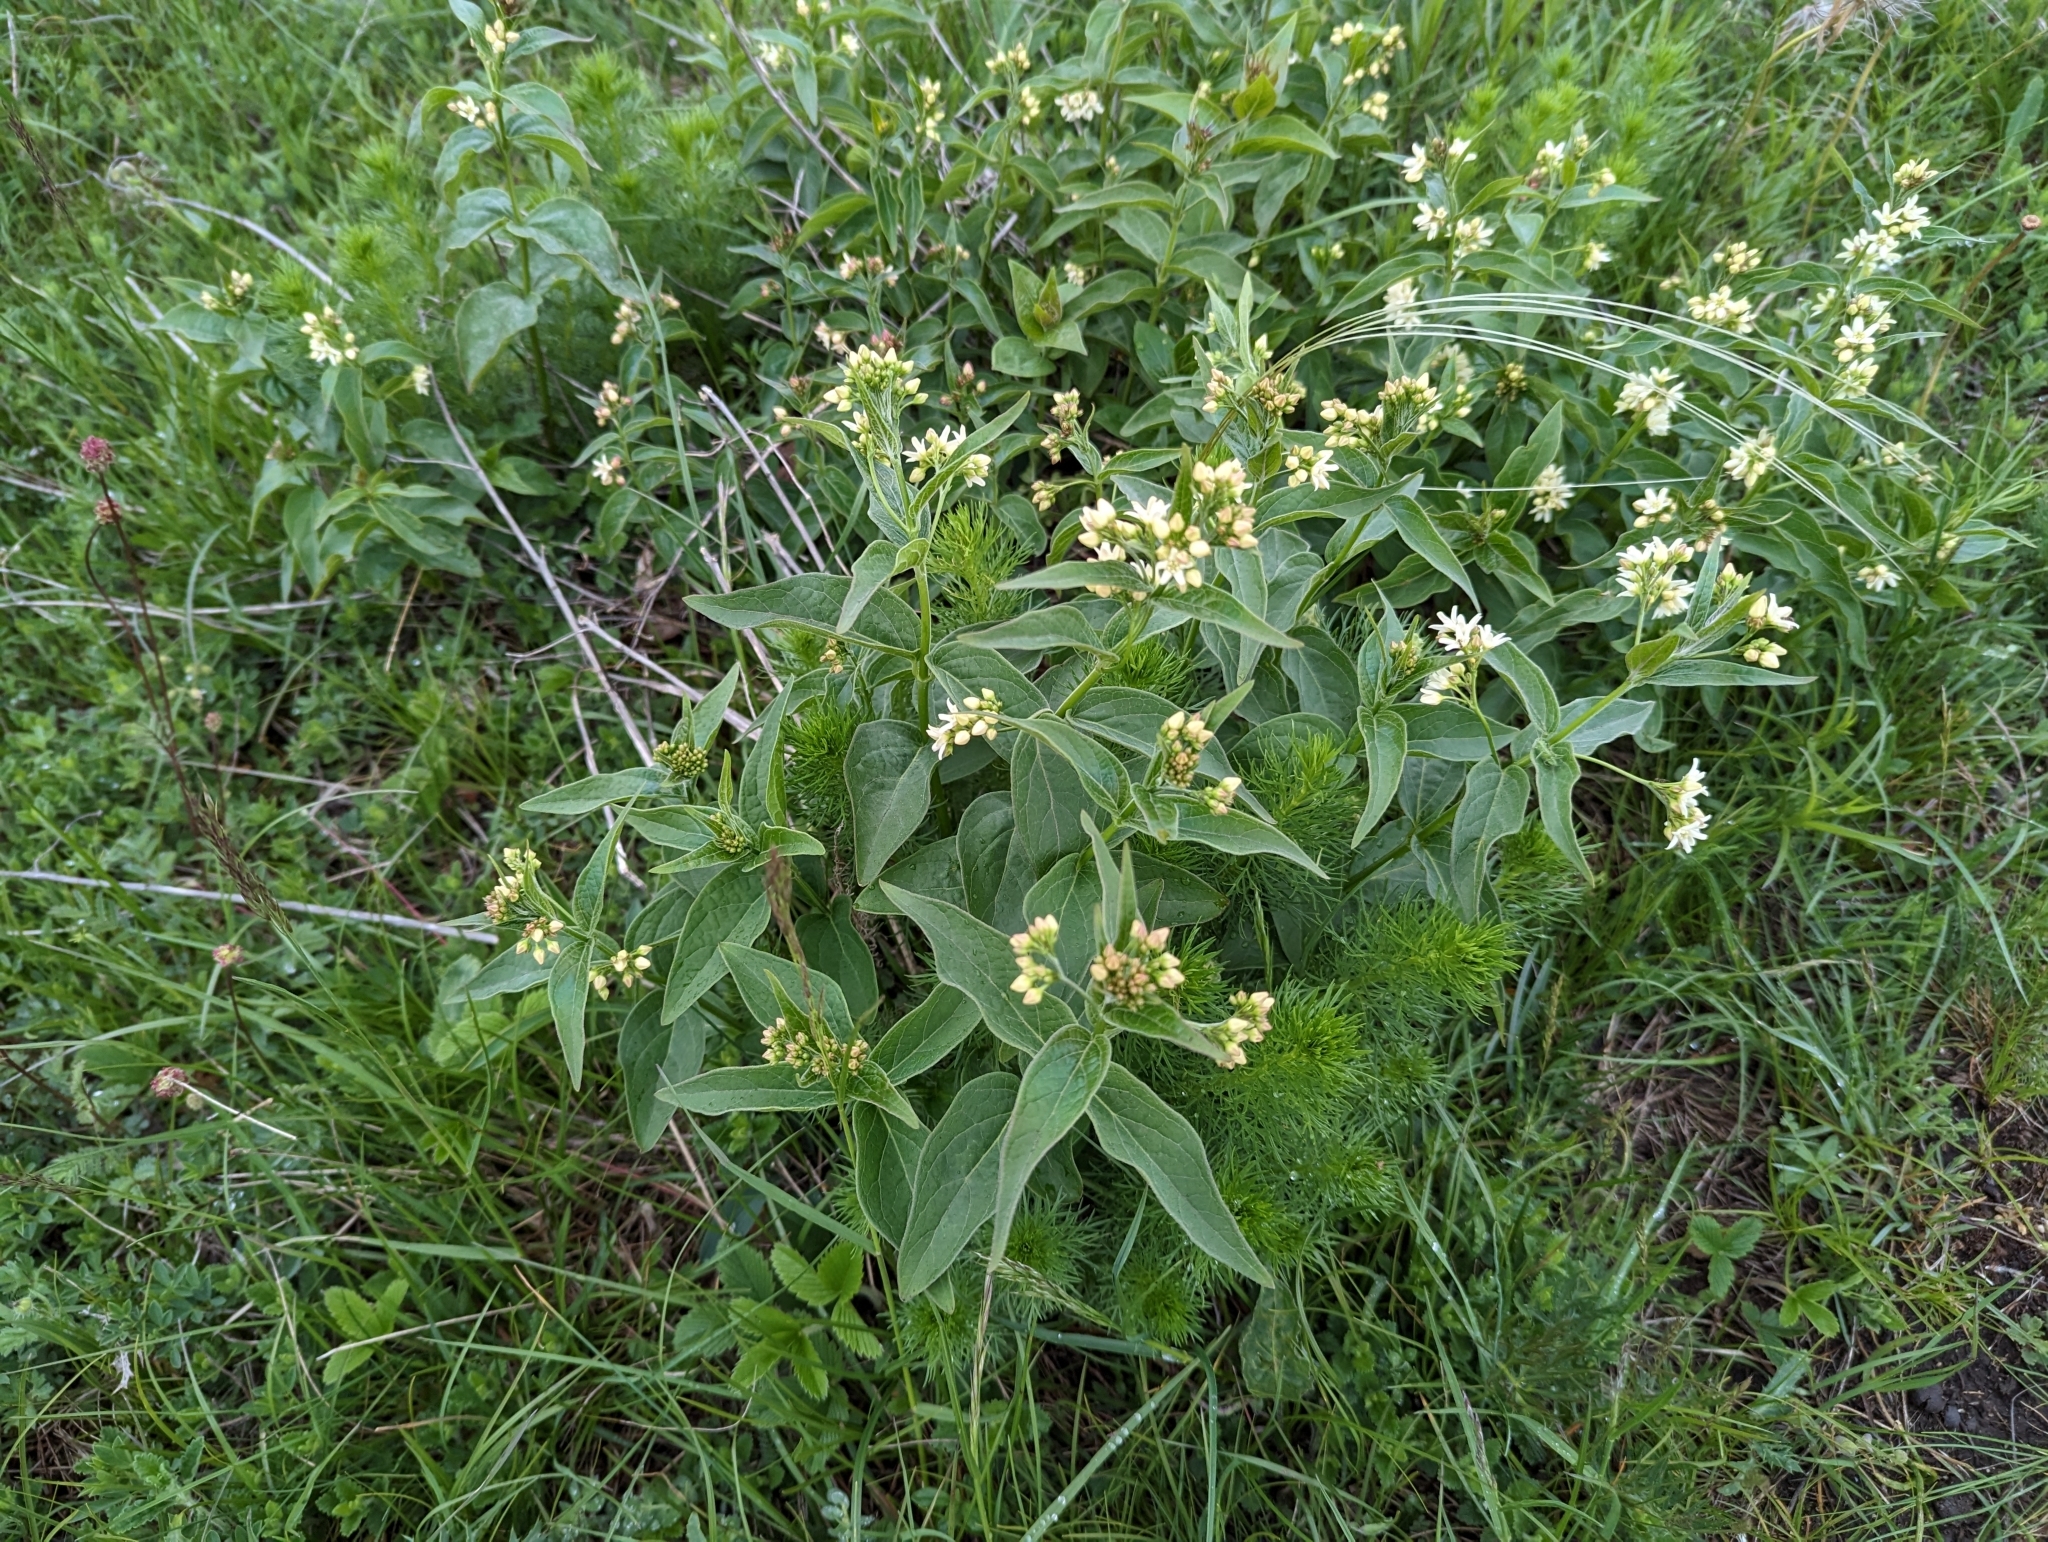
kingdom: Plantae
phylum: Tracheophyta
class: Magnoliopsida
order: Gentianales
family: Apocynaceae
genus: Vincetoxicum
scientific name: Vincetoxicum hirundinaria
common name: White swallowwort
